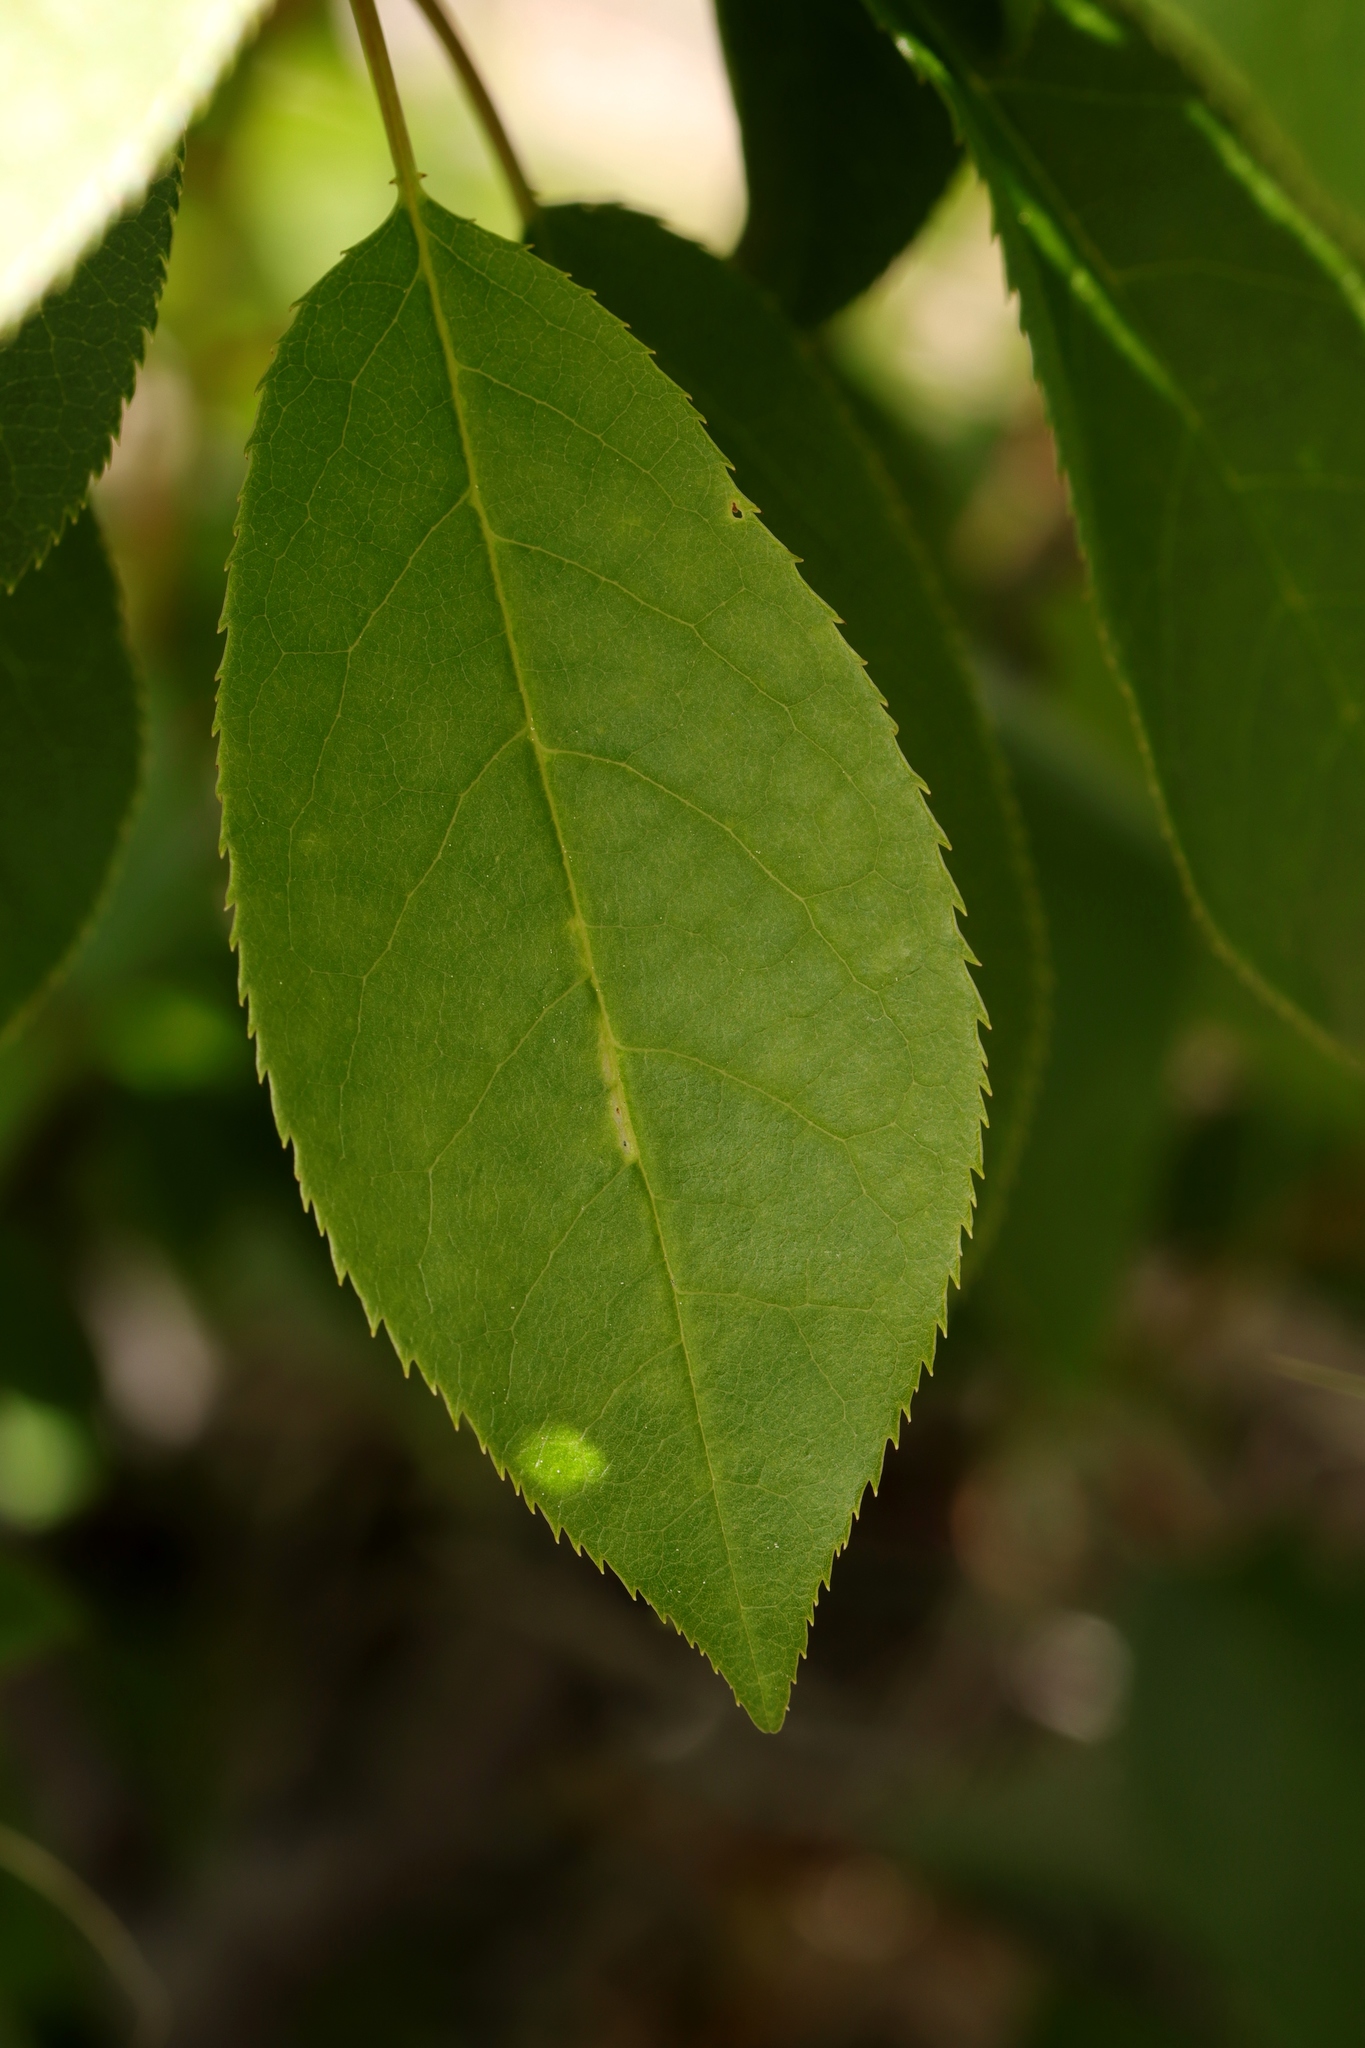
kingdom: Plantae
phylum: Tracheophyta
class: Magnoliopsida
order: Rosales
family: Rosaceae
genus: Prunus
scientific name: Prunus virginiana
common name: Chokecherry
